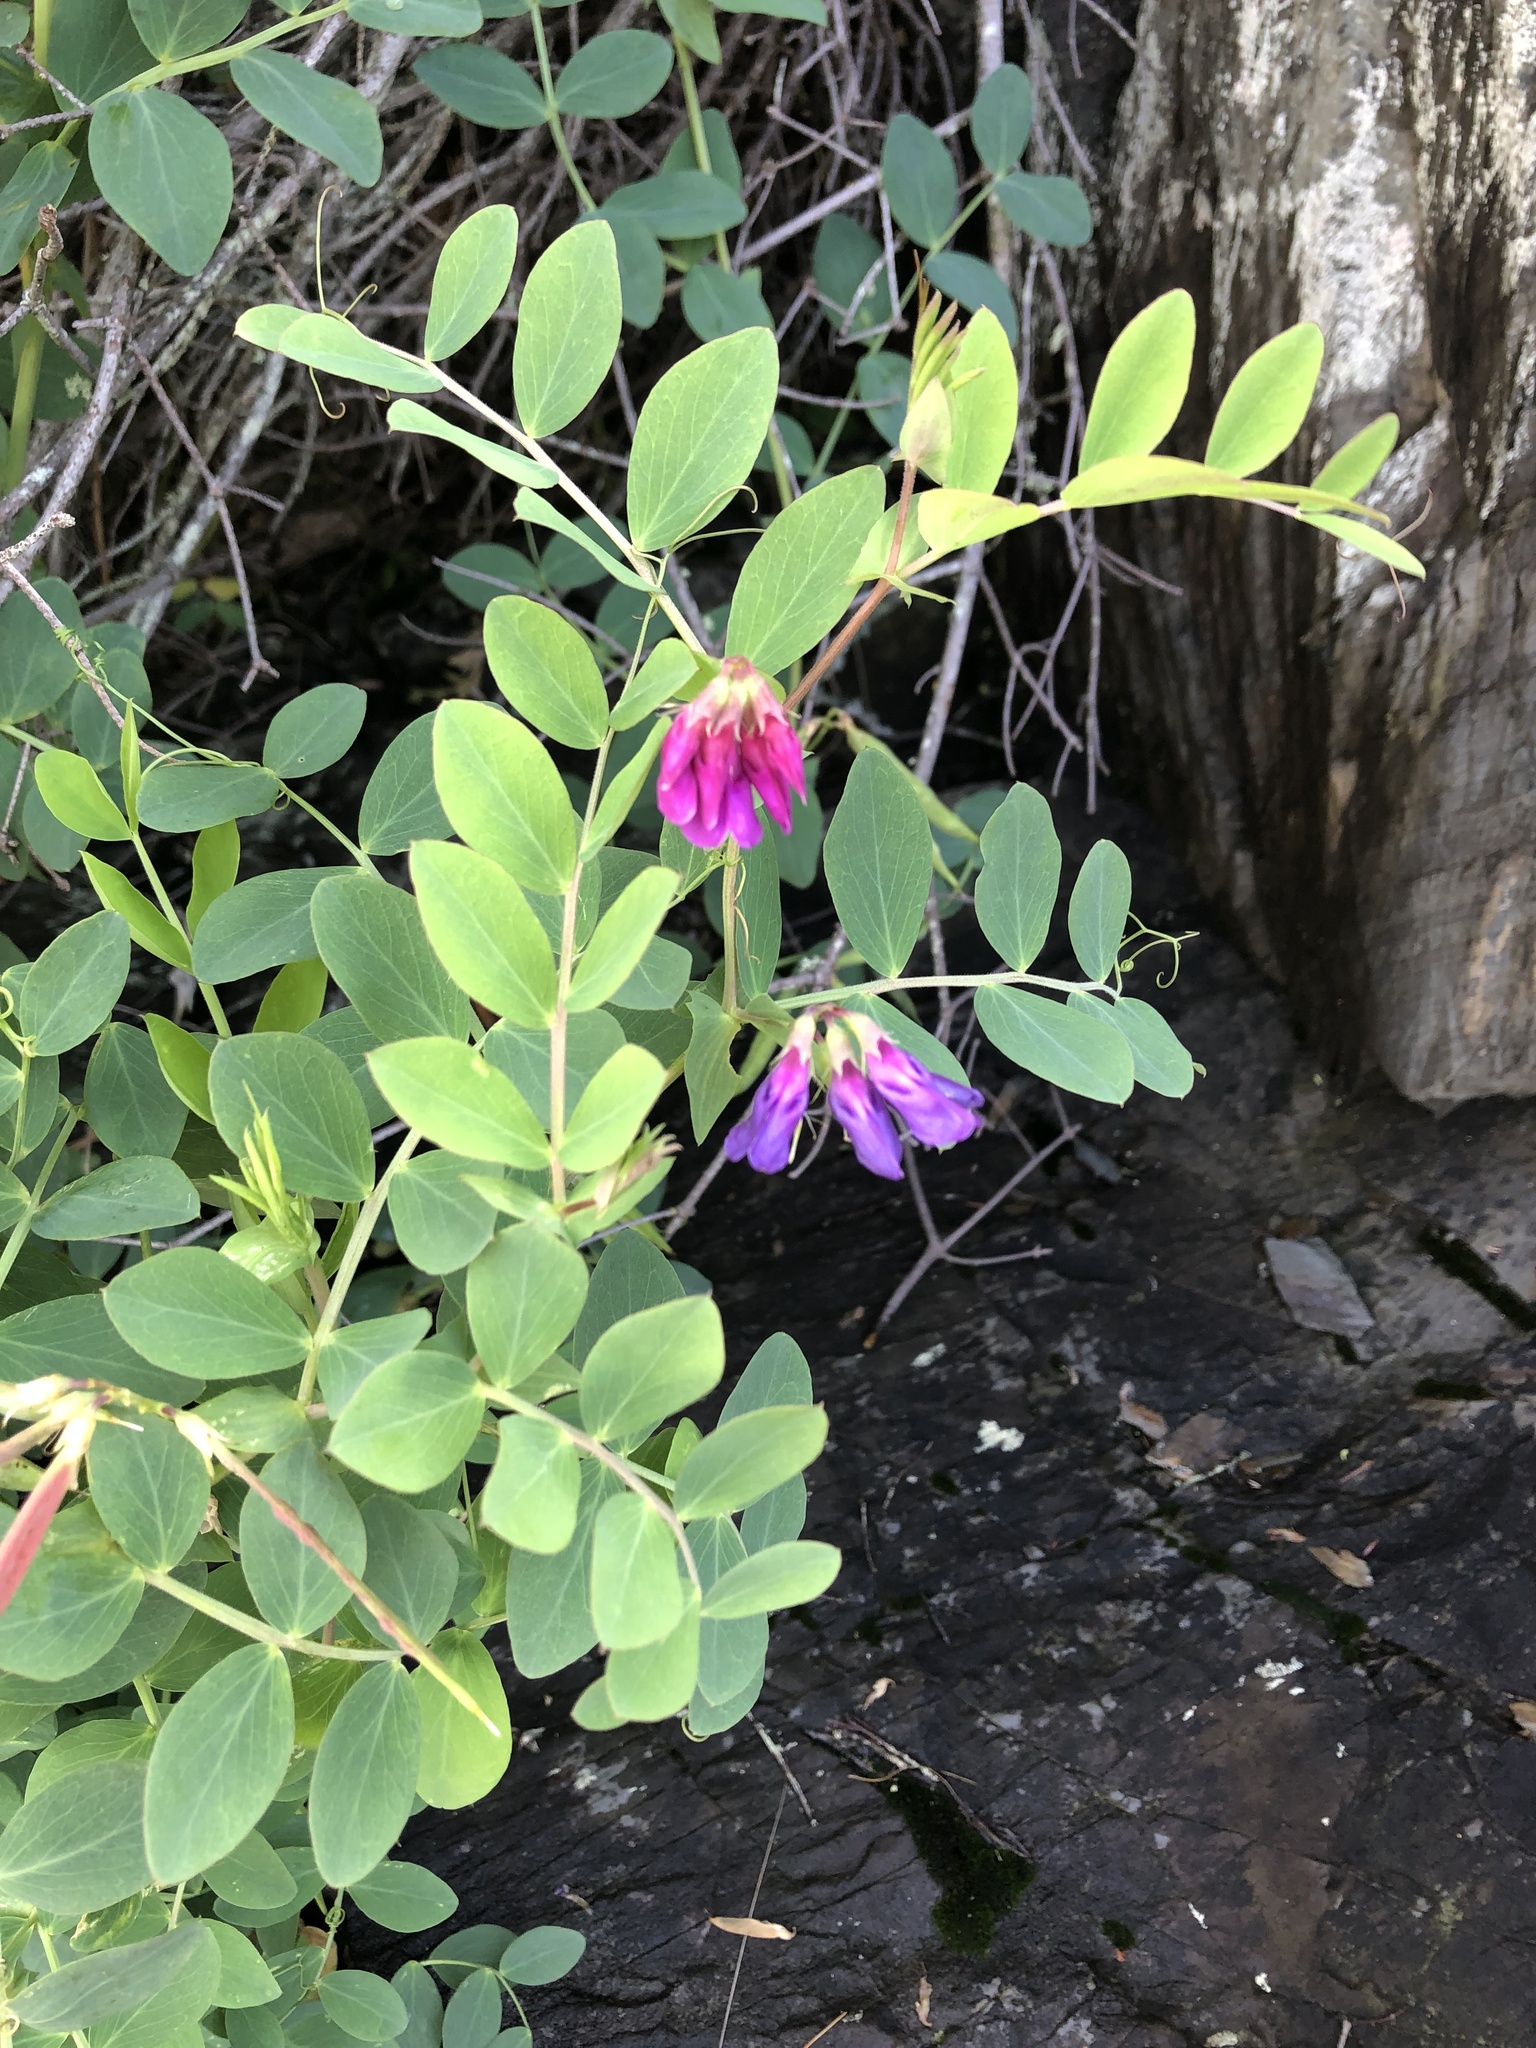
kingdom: Plantae
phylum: Tracheophyta
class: Magnoliopsida
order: Fabales
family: Fabaceae
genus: Lathyrus
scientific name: Lathyrus japonicus
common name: Sea pea
